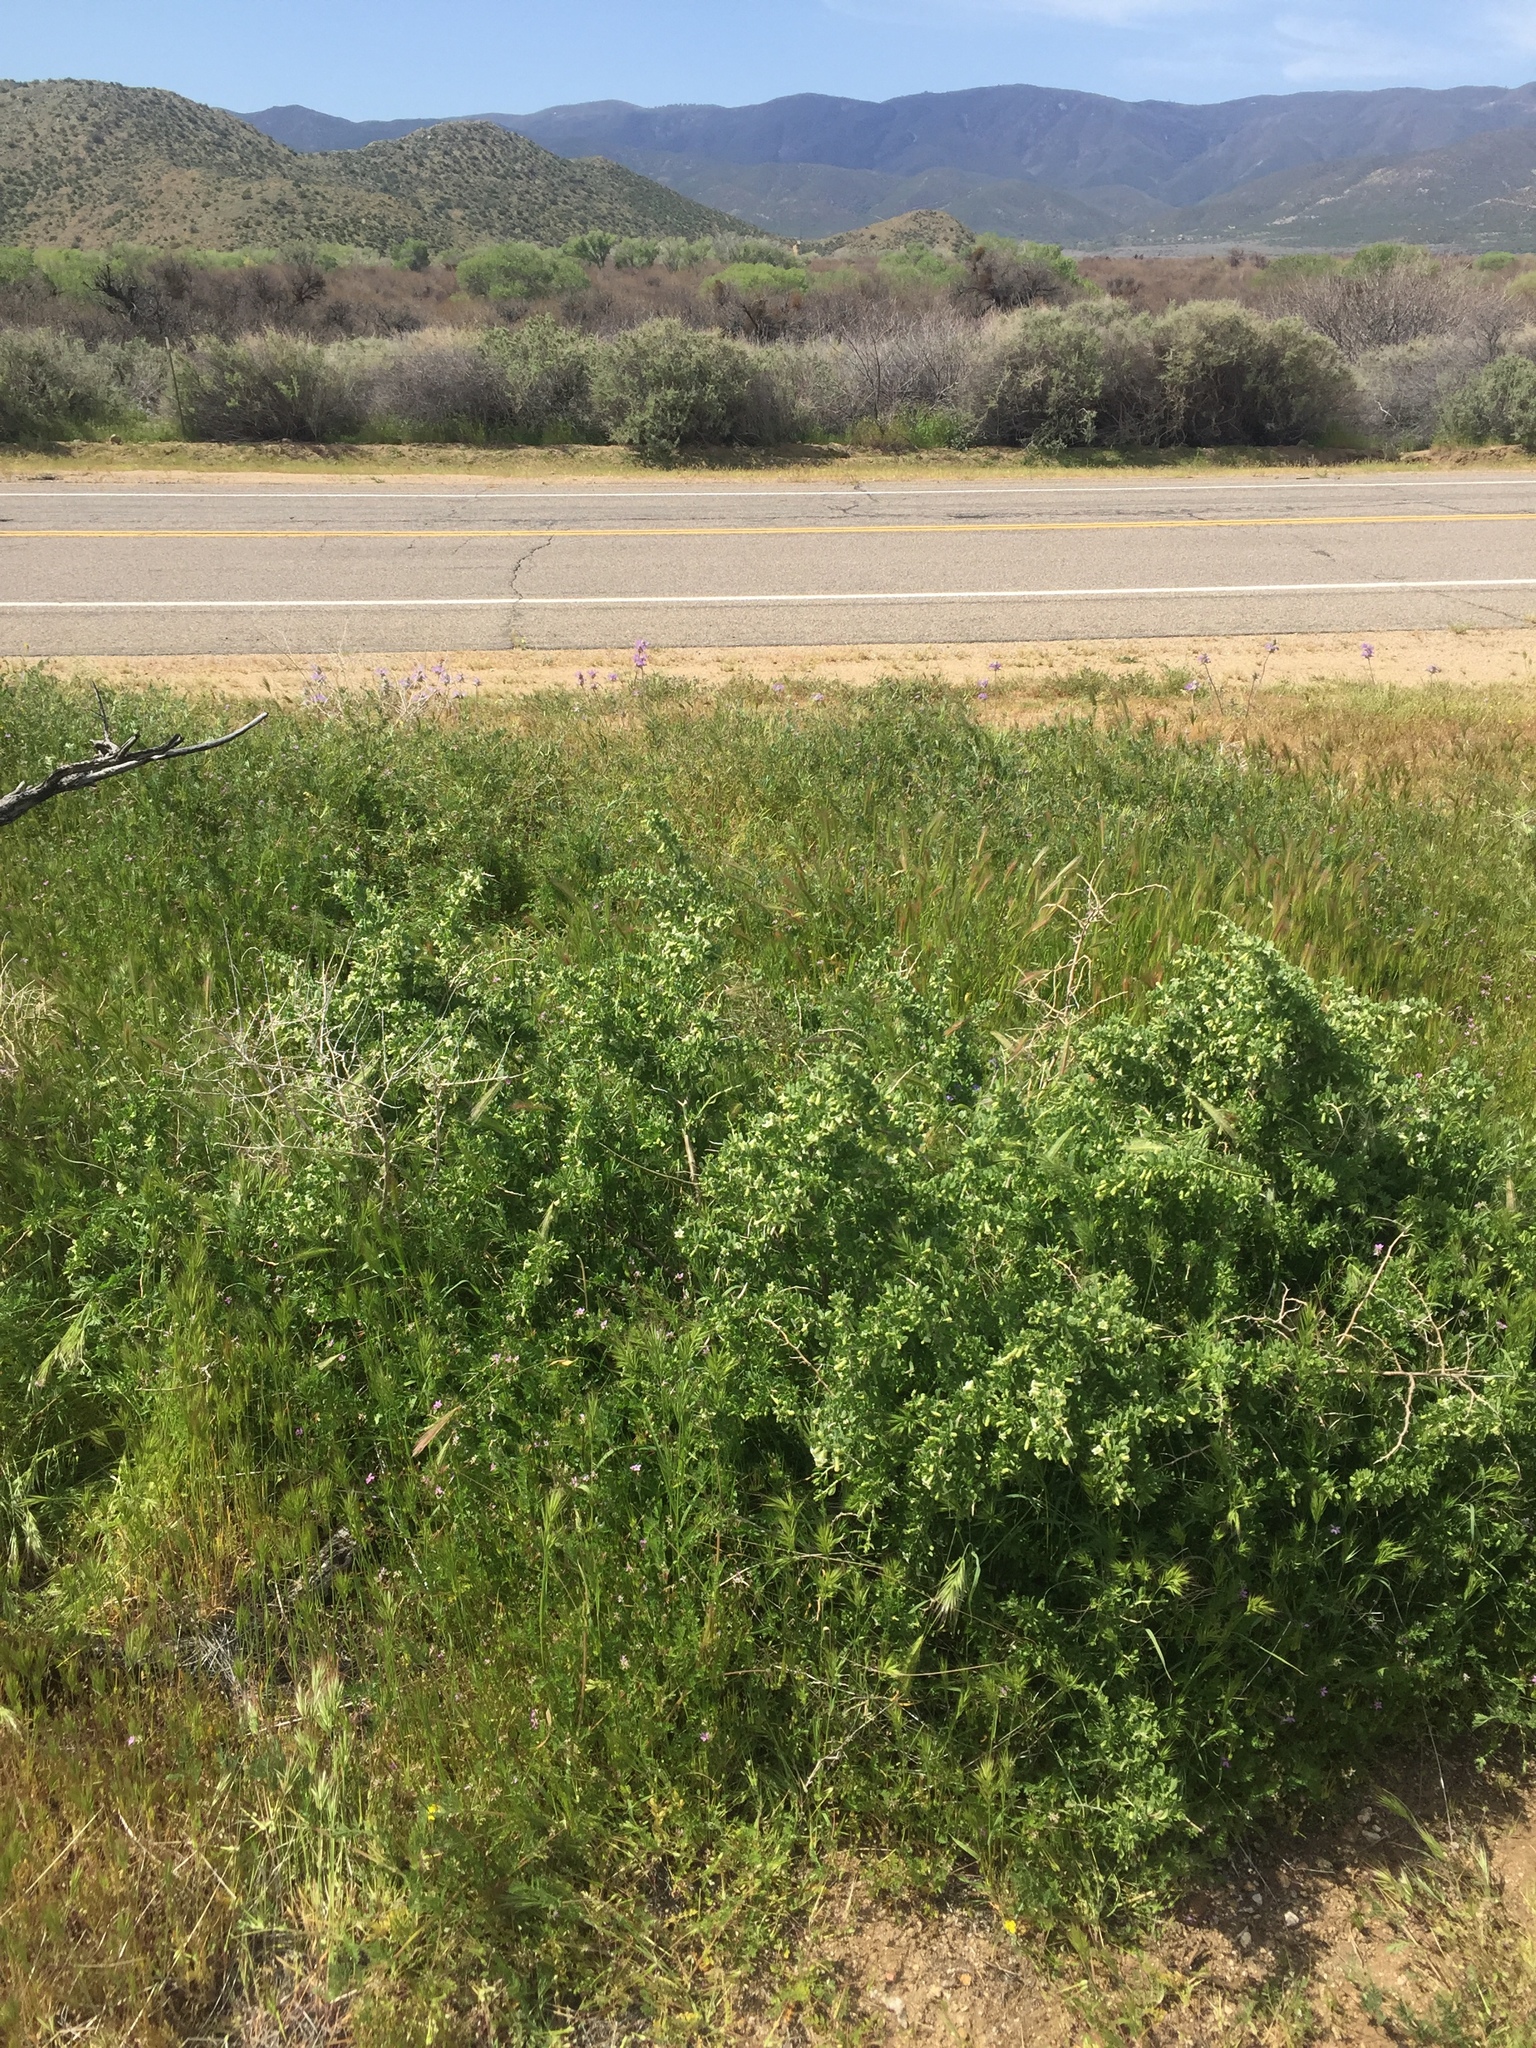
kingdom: Plantae
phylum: Tracheophyta
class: Magnoliopsida
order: Solanales
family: Solanaceae
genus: Lycium
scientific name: Lycium cooperi
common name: Peachthorn
